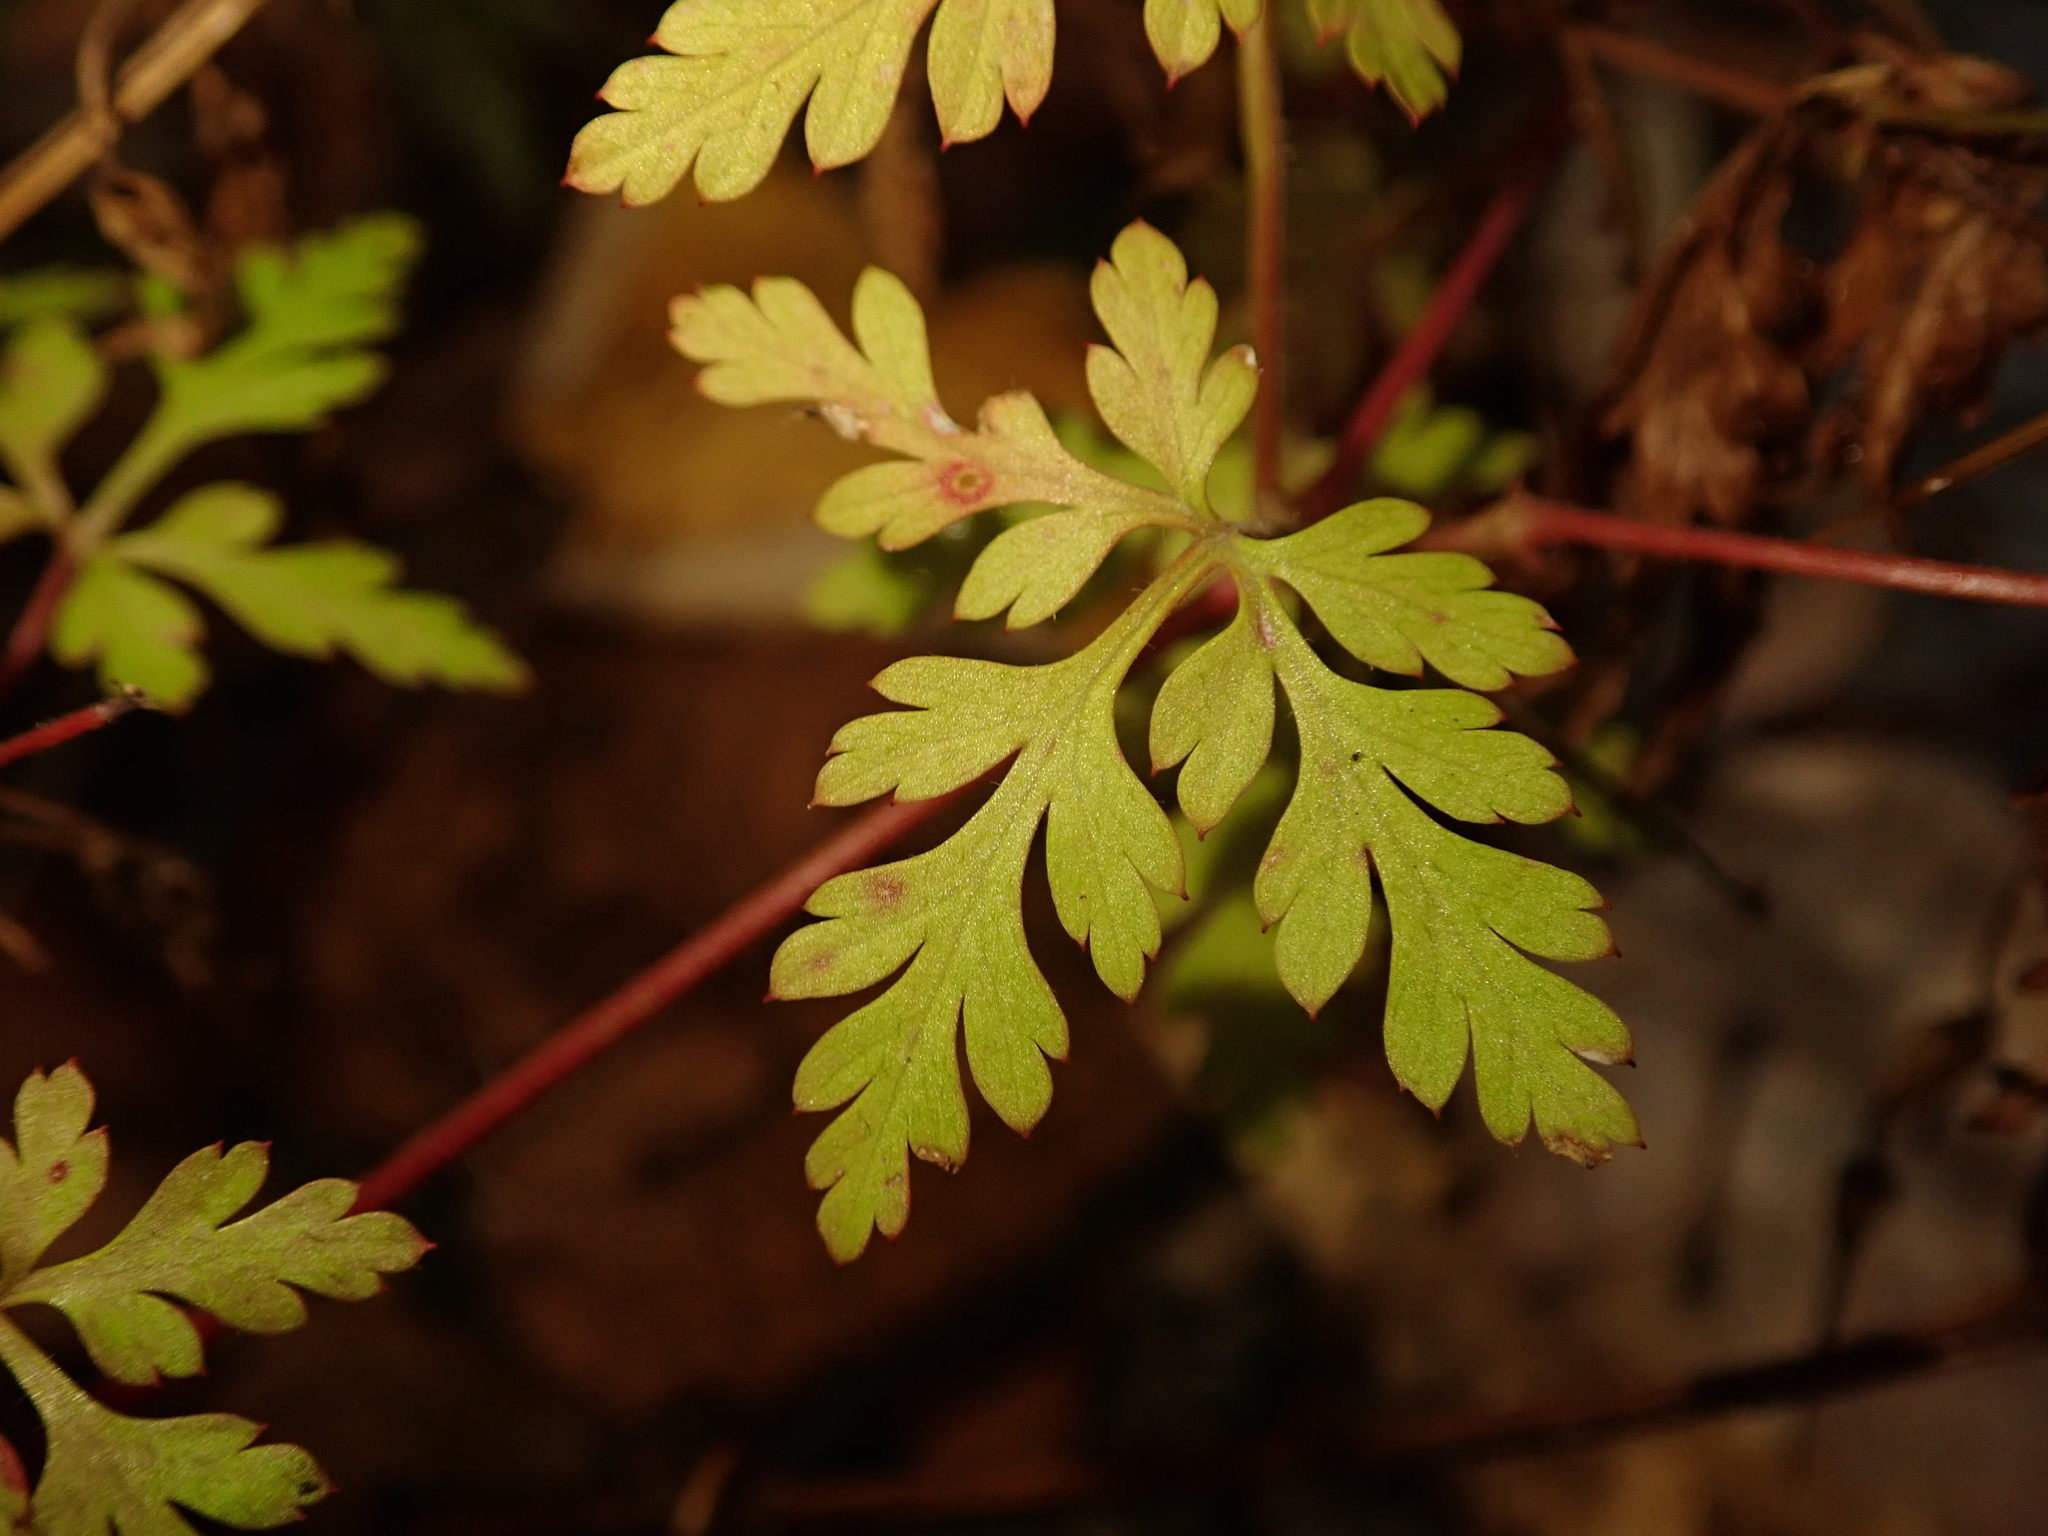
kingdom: Plantae
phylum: Tracheophyta
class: Magnoliopsida
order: Geraniales
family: Geraniaceae
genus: Geranium
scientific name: Geranium robertianum
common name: Herb-robert
